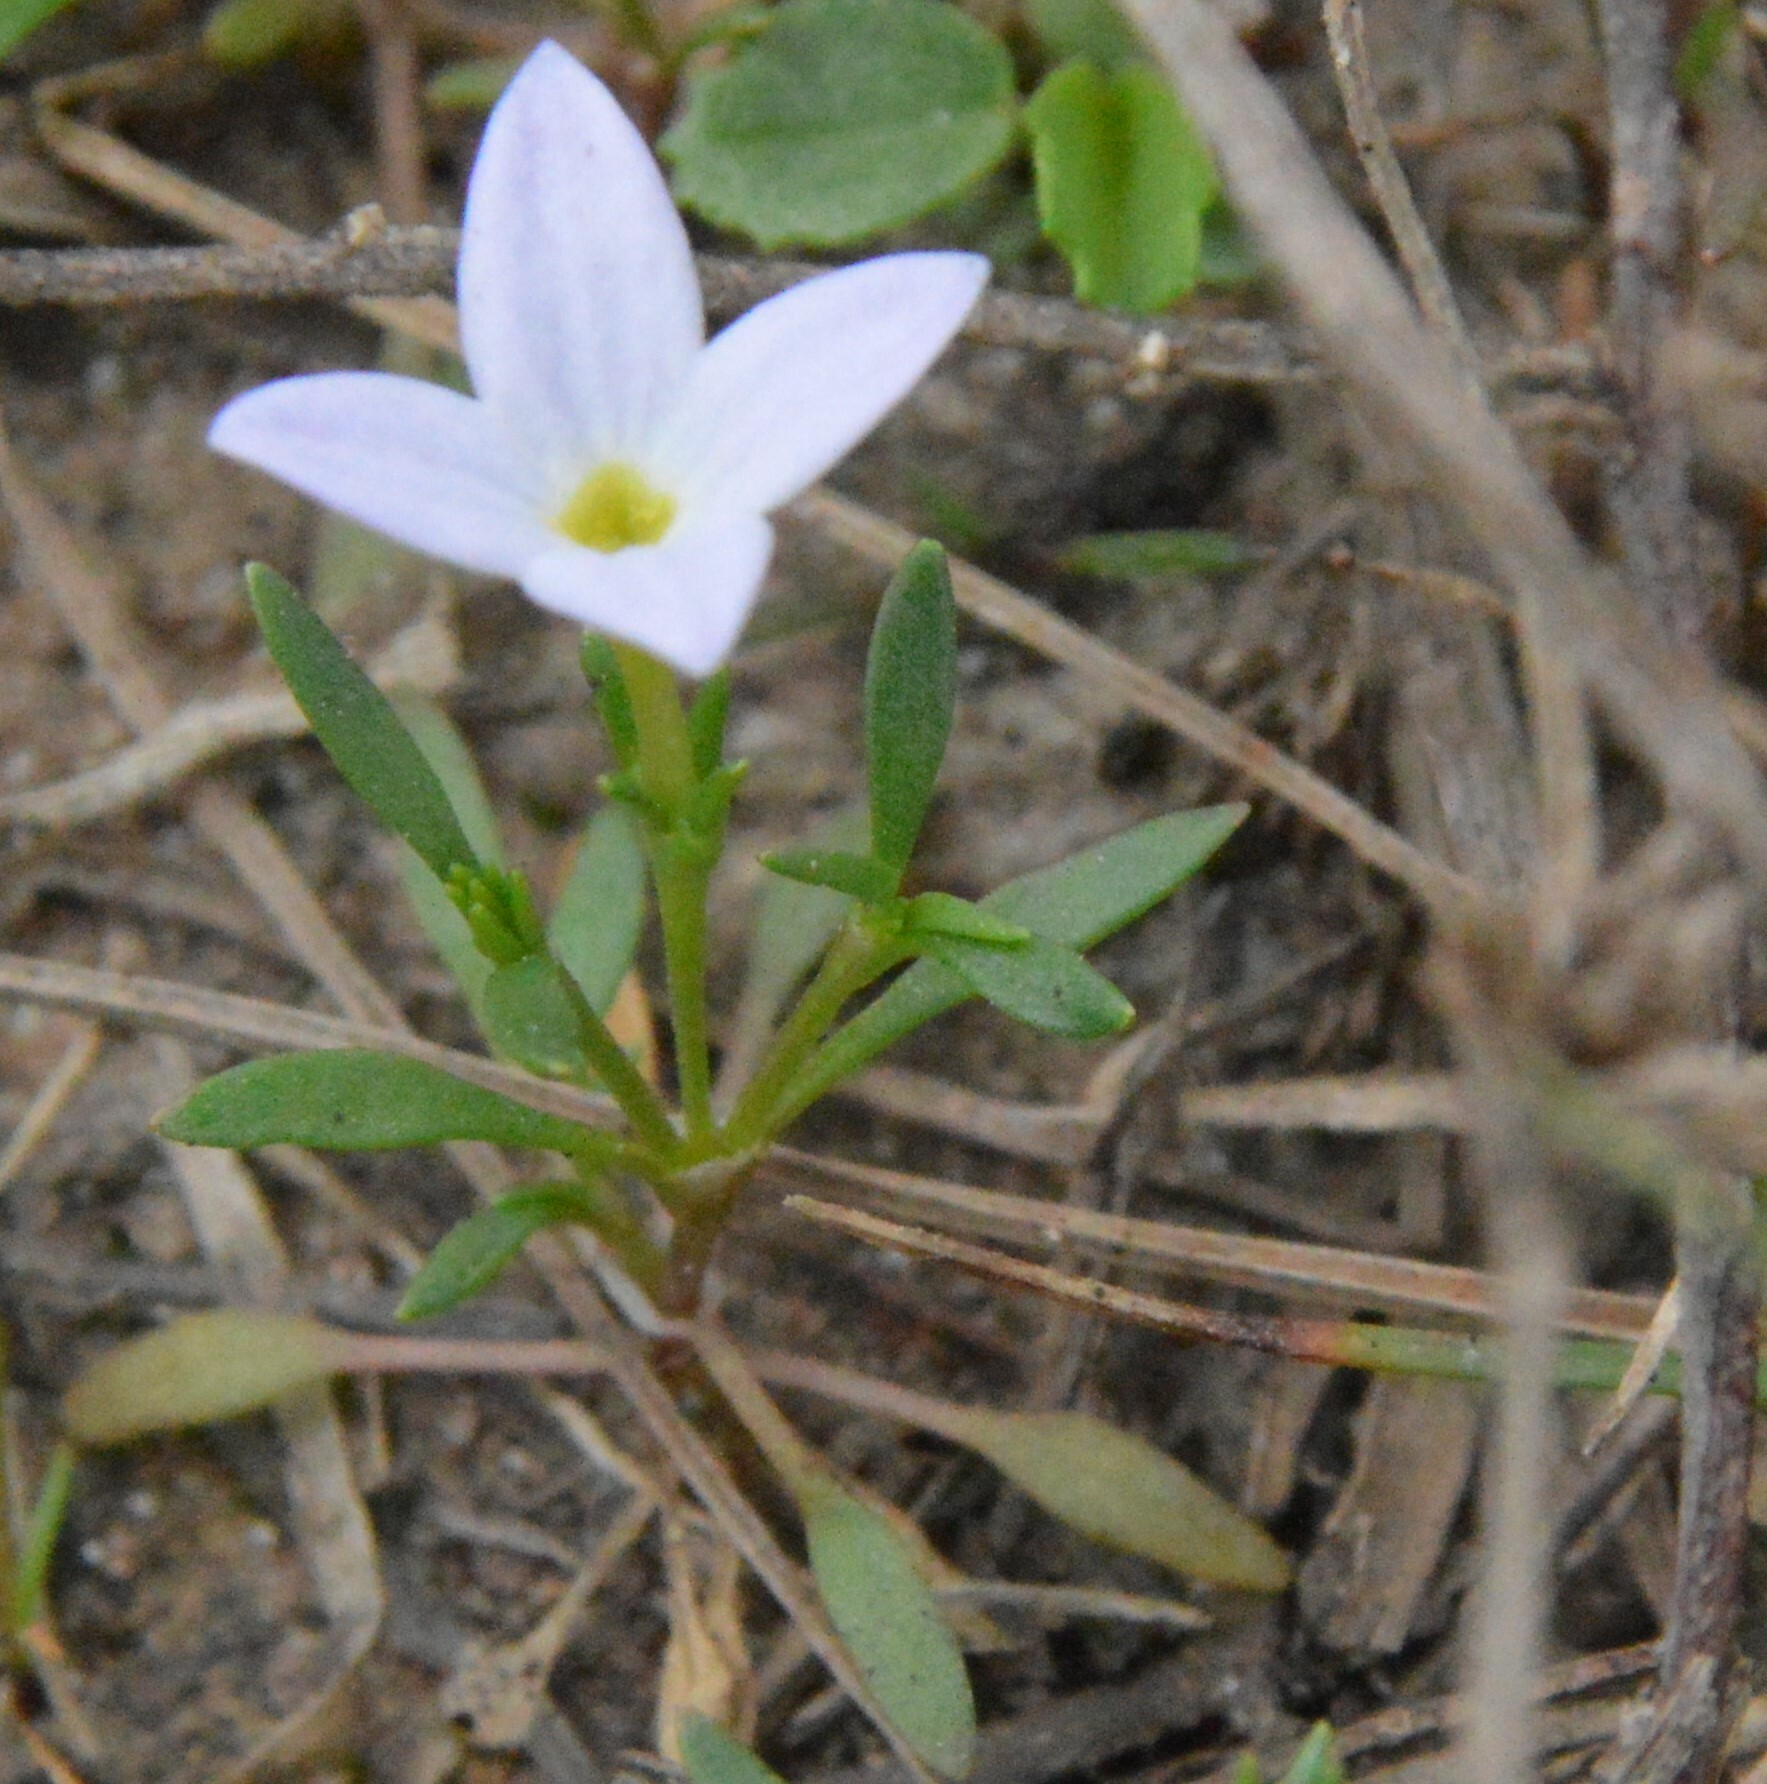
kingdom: Plantae
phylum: Tracheophyta
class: Magnoliopsida
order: Gentianales
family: Rubiaceae
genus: Houstonia
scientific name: Houstonia rosea
